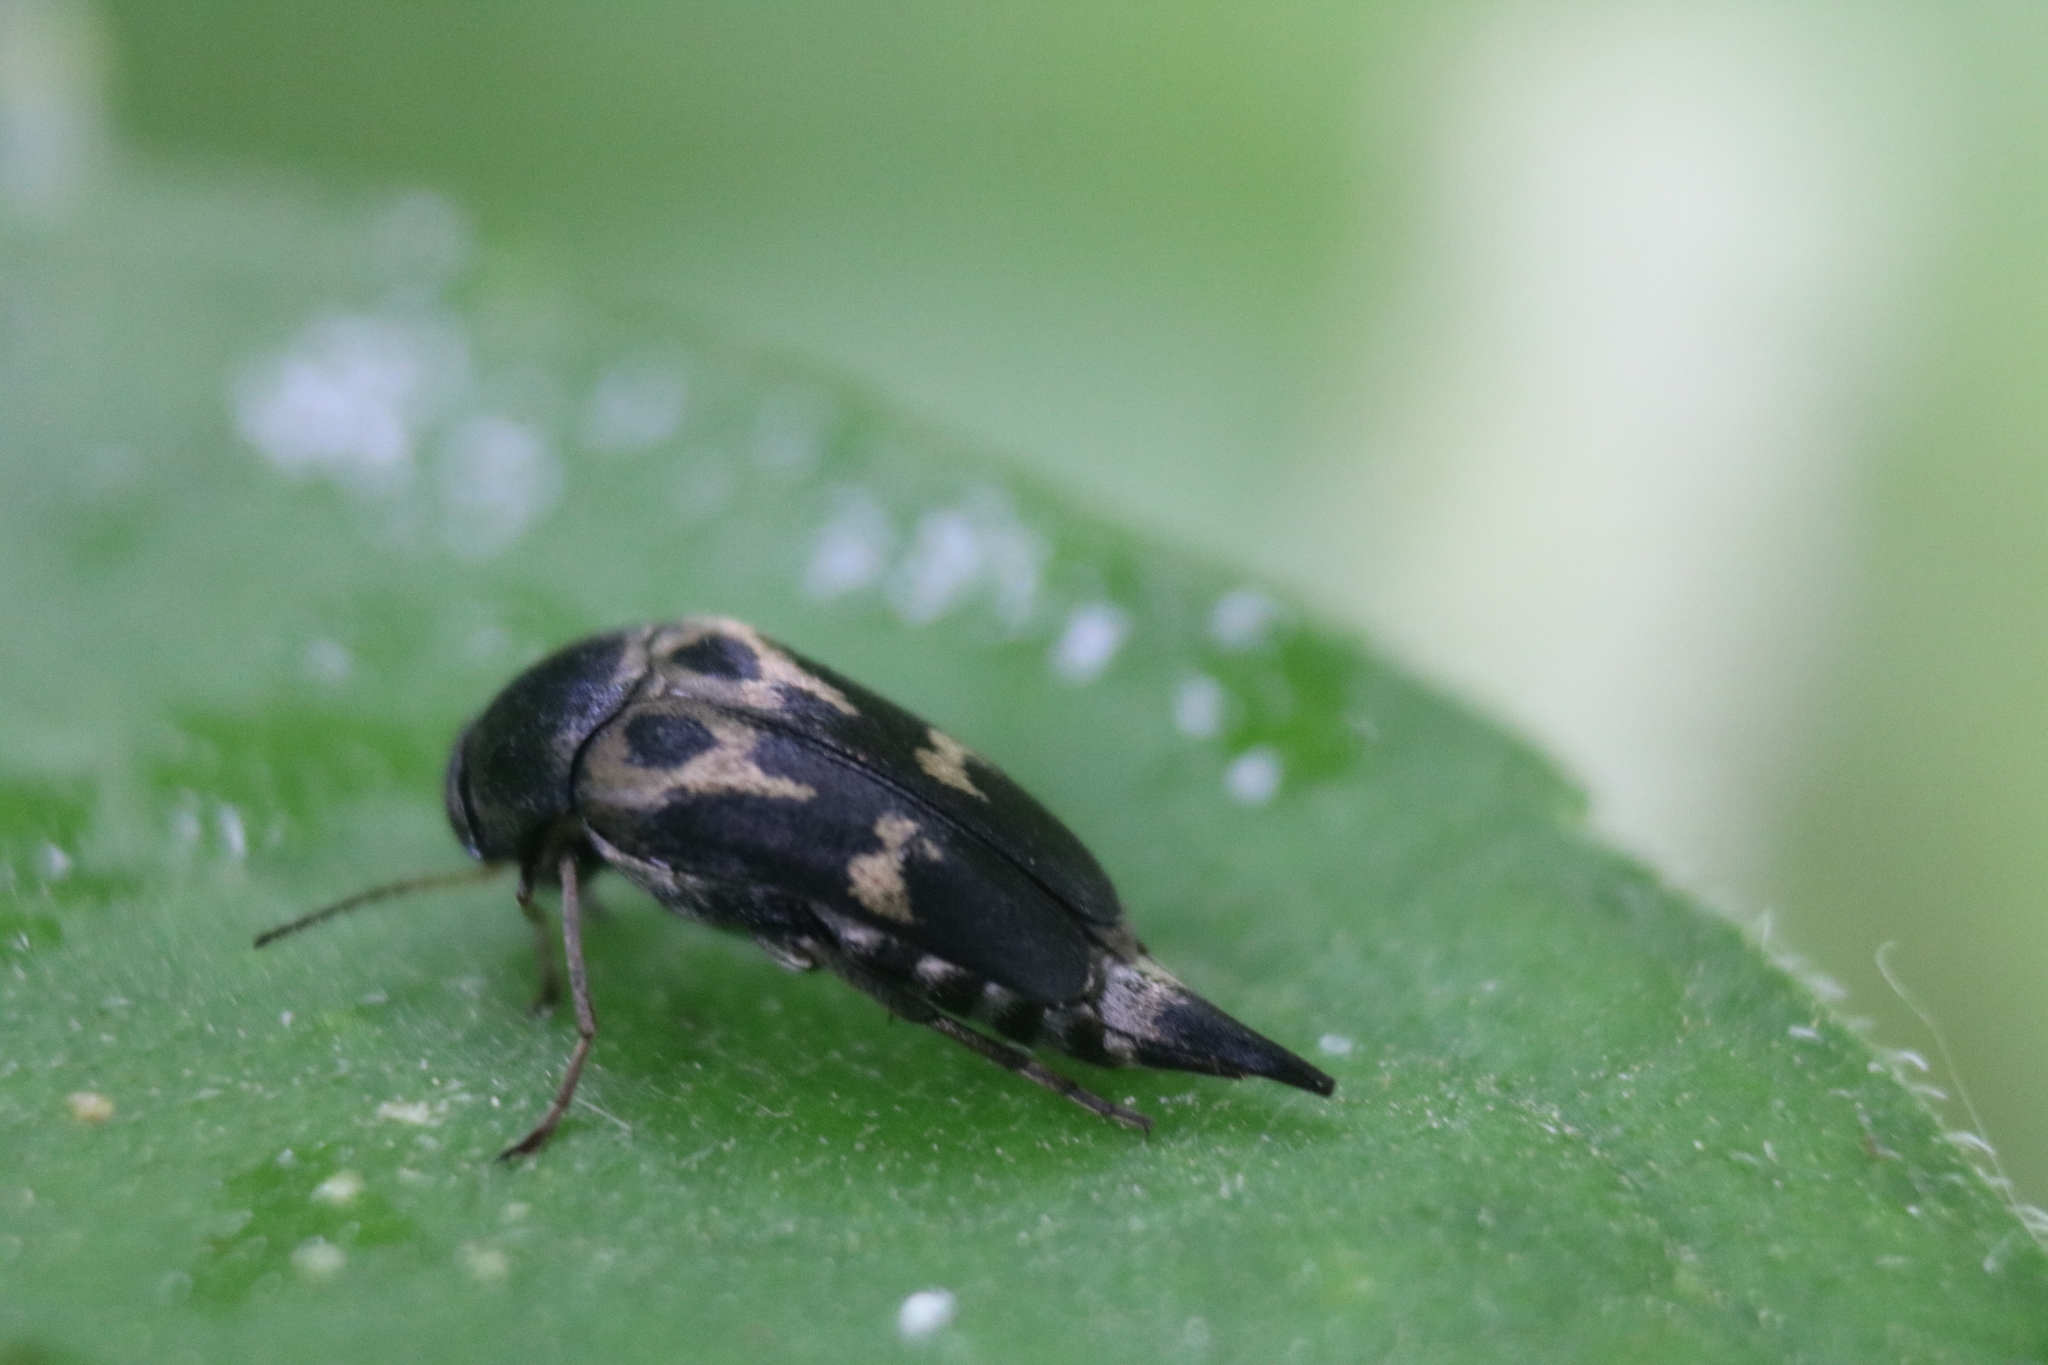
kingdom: Animalia
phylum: Arthropoda
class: Insecta
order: Coleoptera
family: Mordellidae
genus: Glipa
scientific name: Glipa oculata
